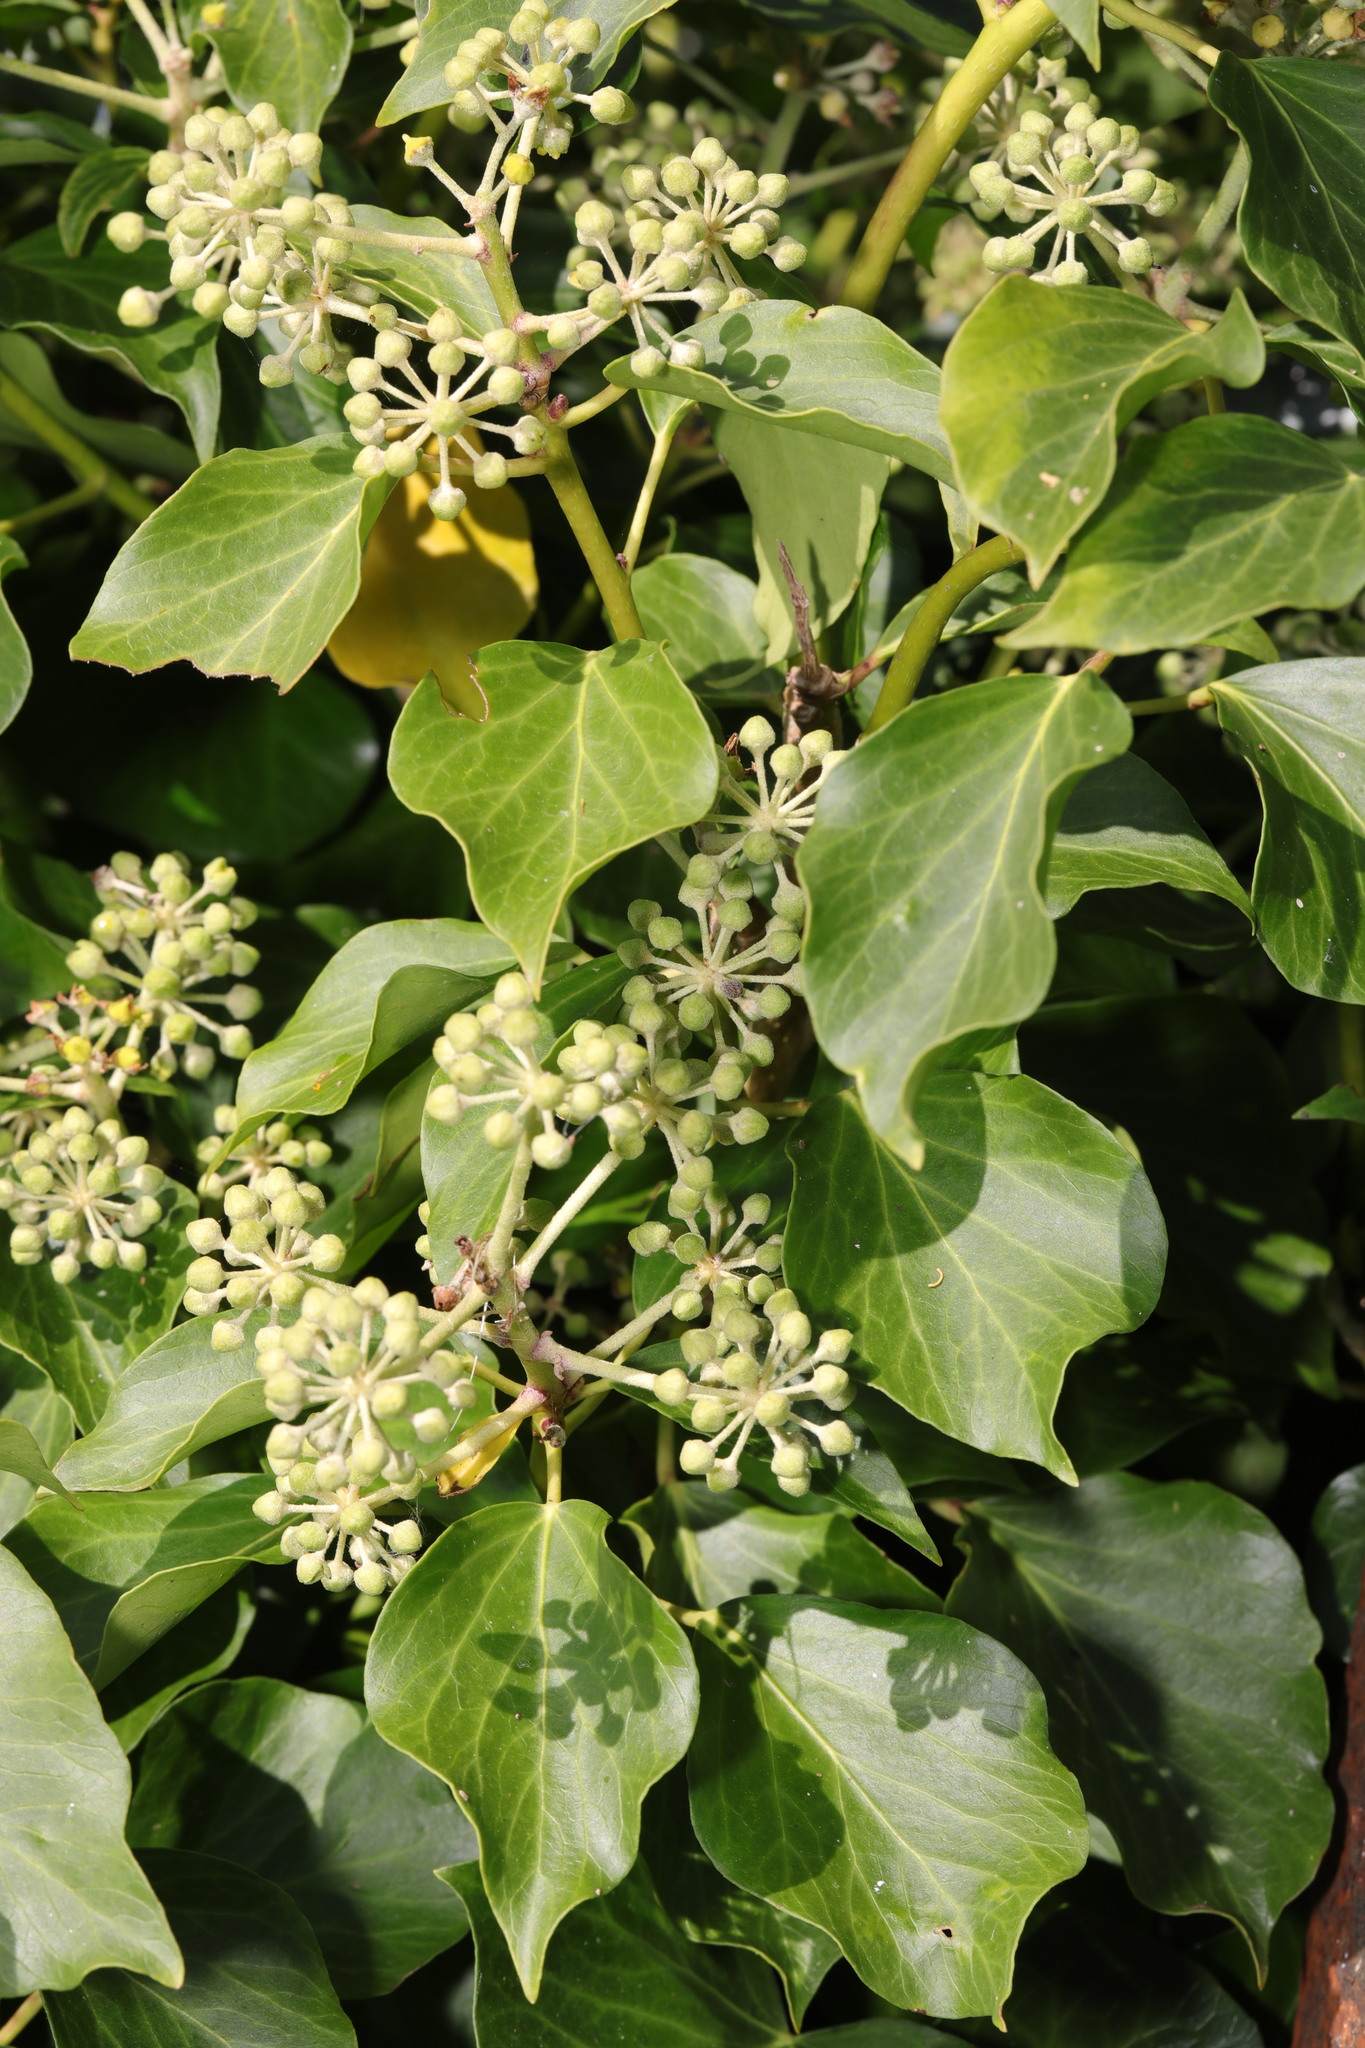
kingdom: Plantae
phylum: Tracheophyta
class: Magnoliopsida
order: Apiales
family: Araliaceae
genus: Hedera
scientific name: Hedera helix
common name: Ivy
